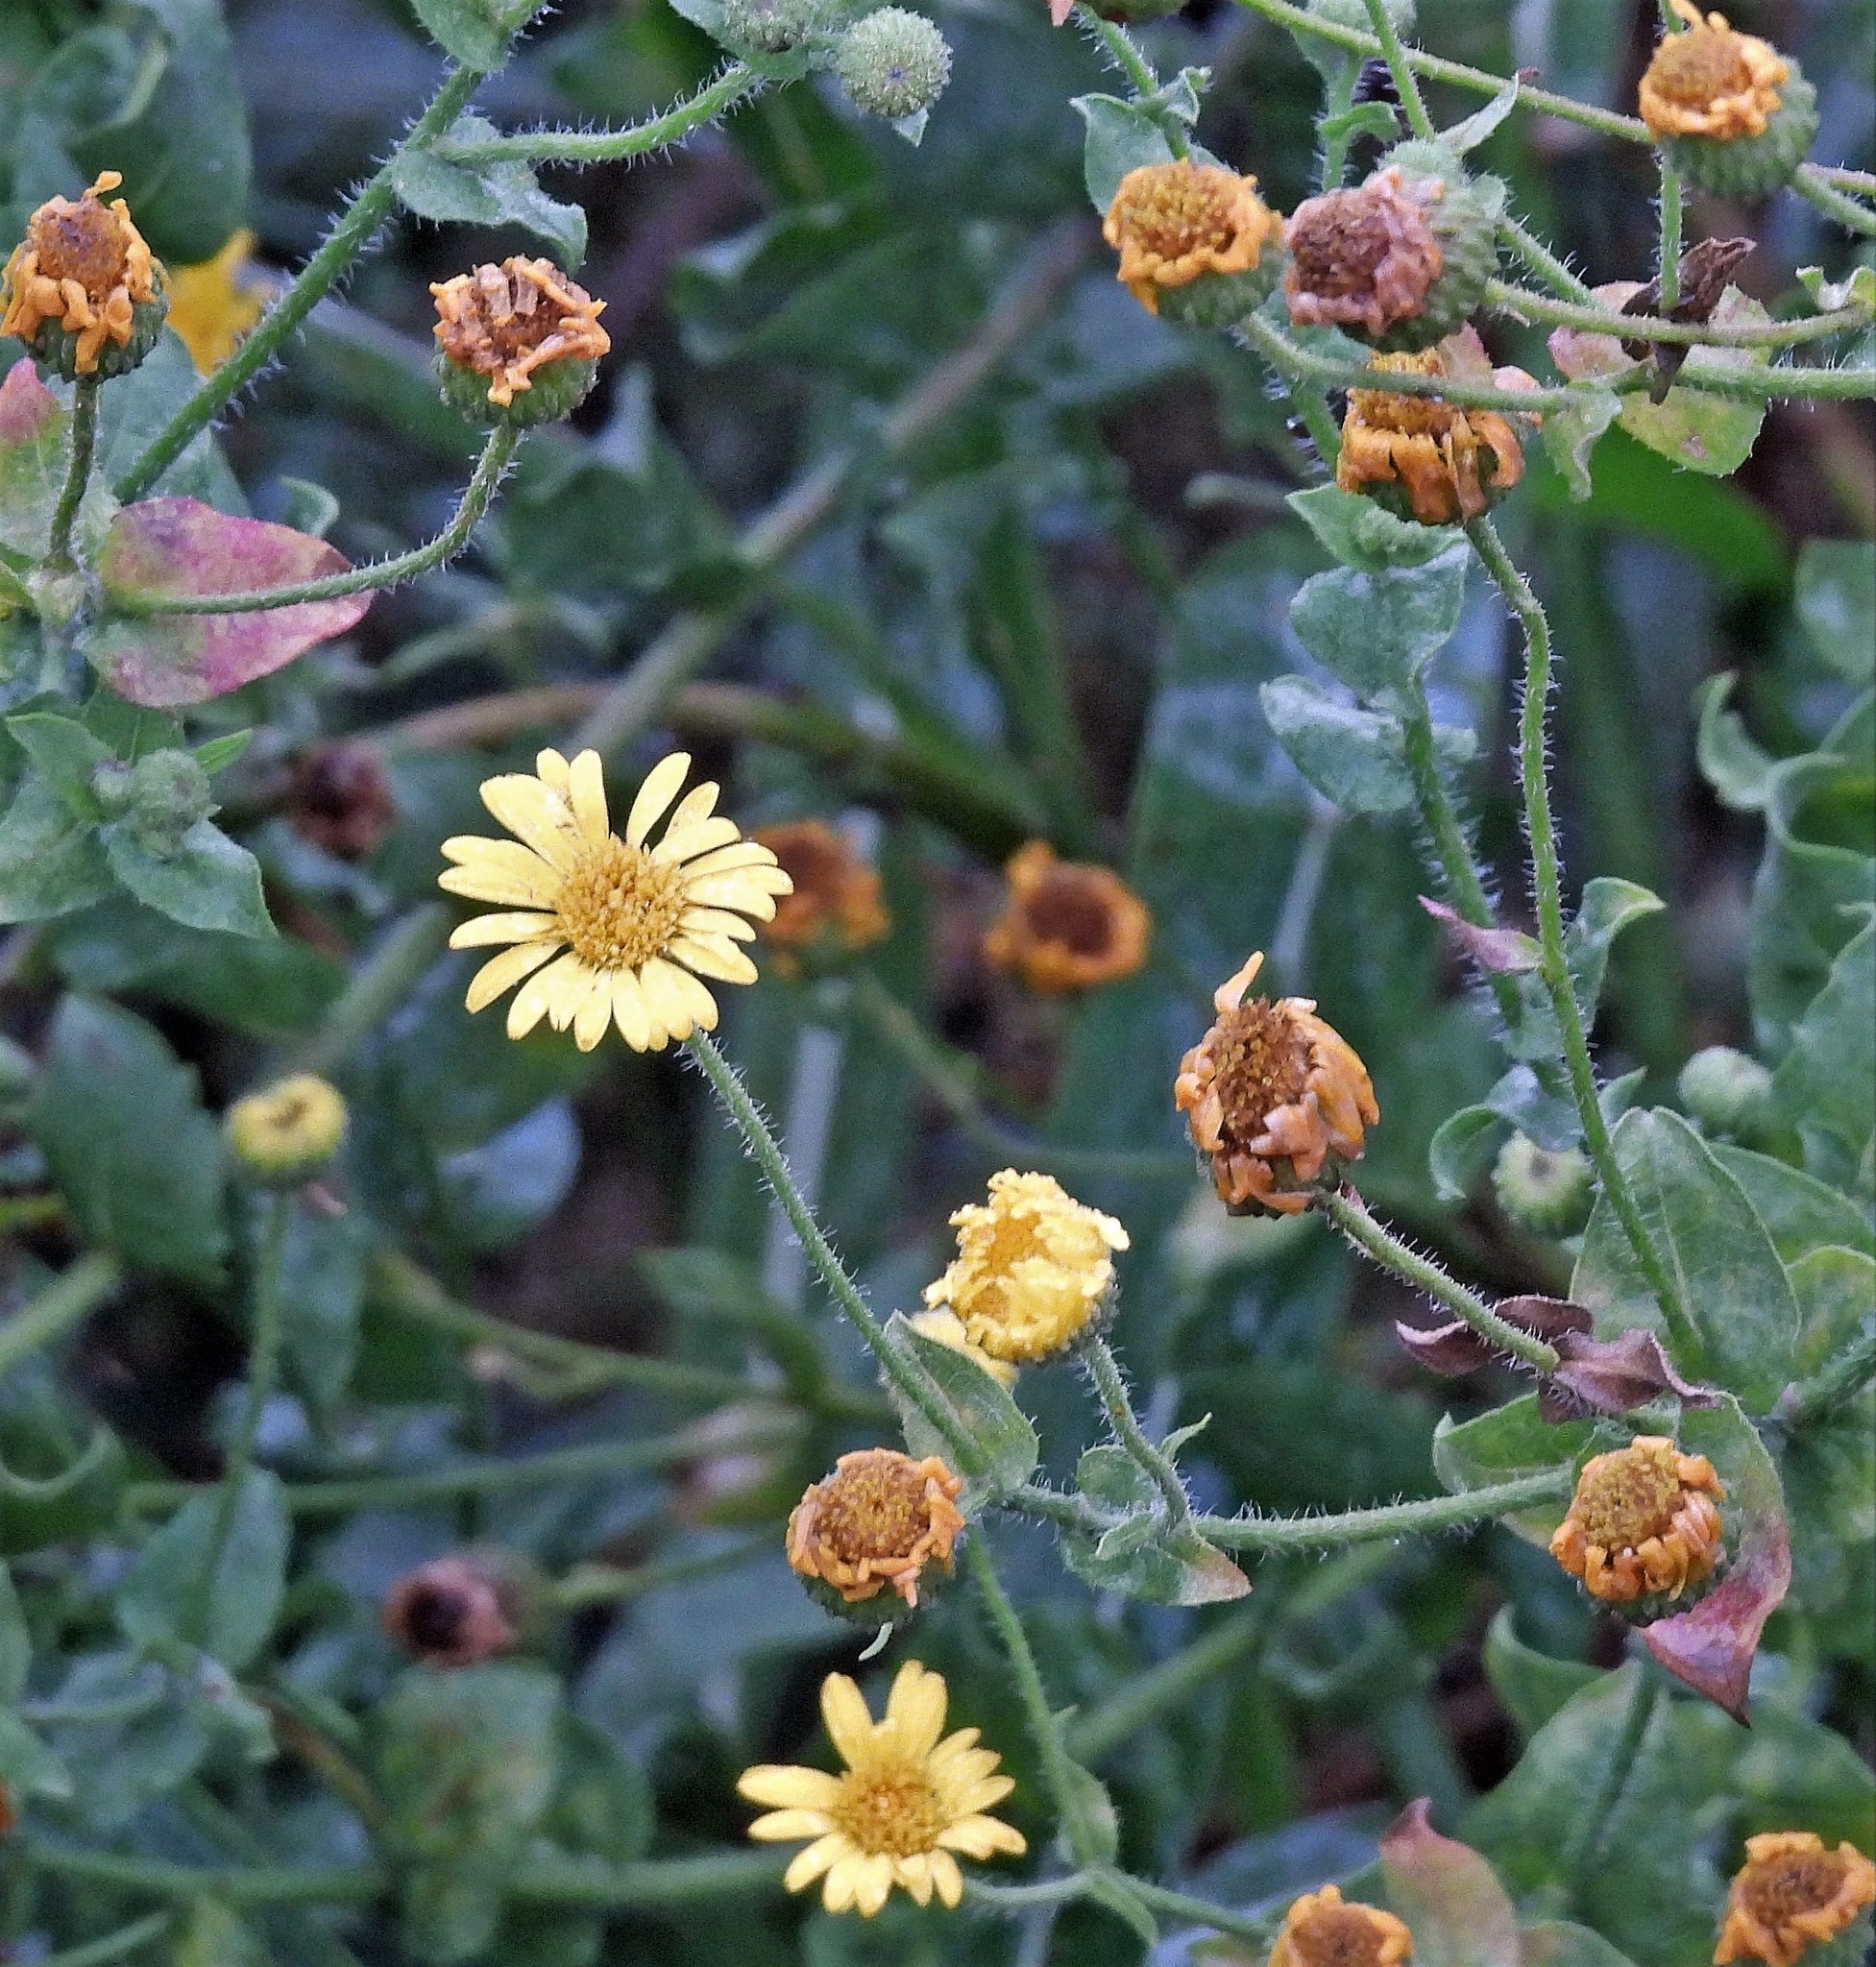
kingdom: Plantae
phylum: Tracheophyta
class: Magnoliopsida
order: Asterales
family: Asteraceae
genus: Heterotheca
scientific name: Heterotheca subaxillaris
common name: Camphorweed
